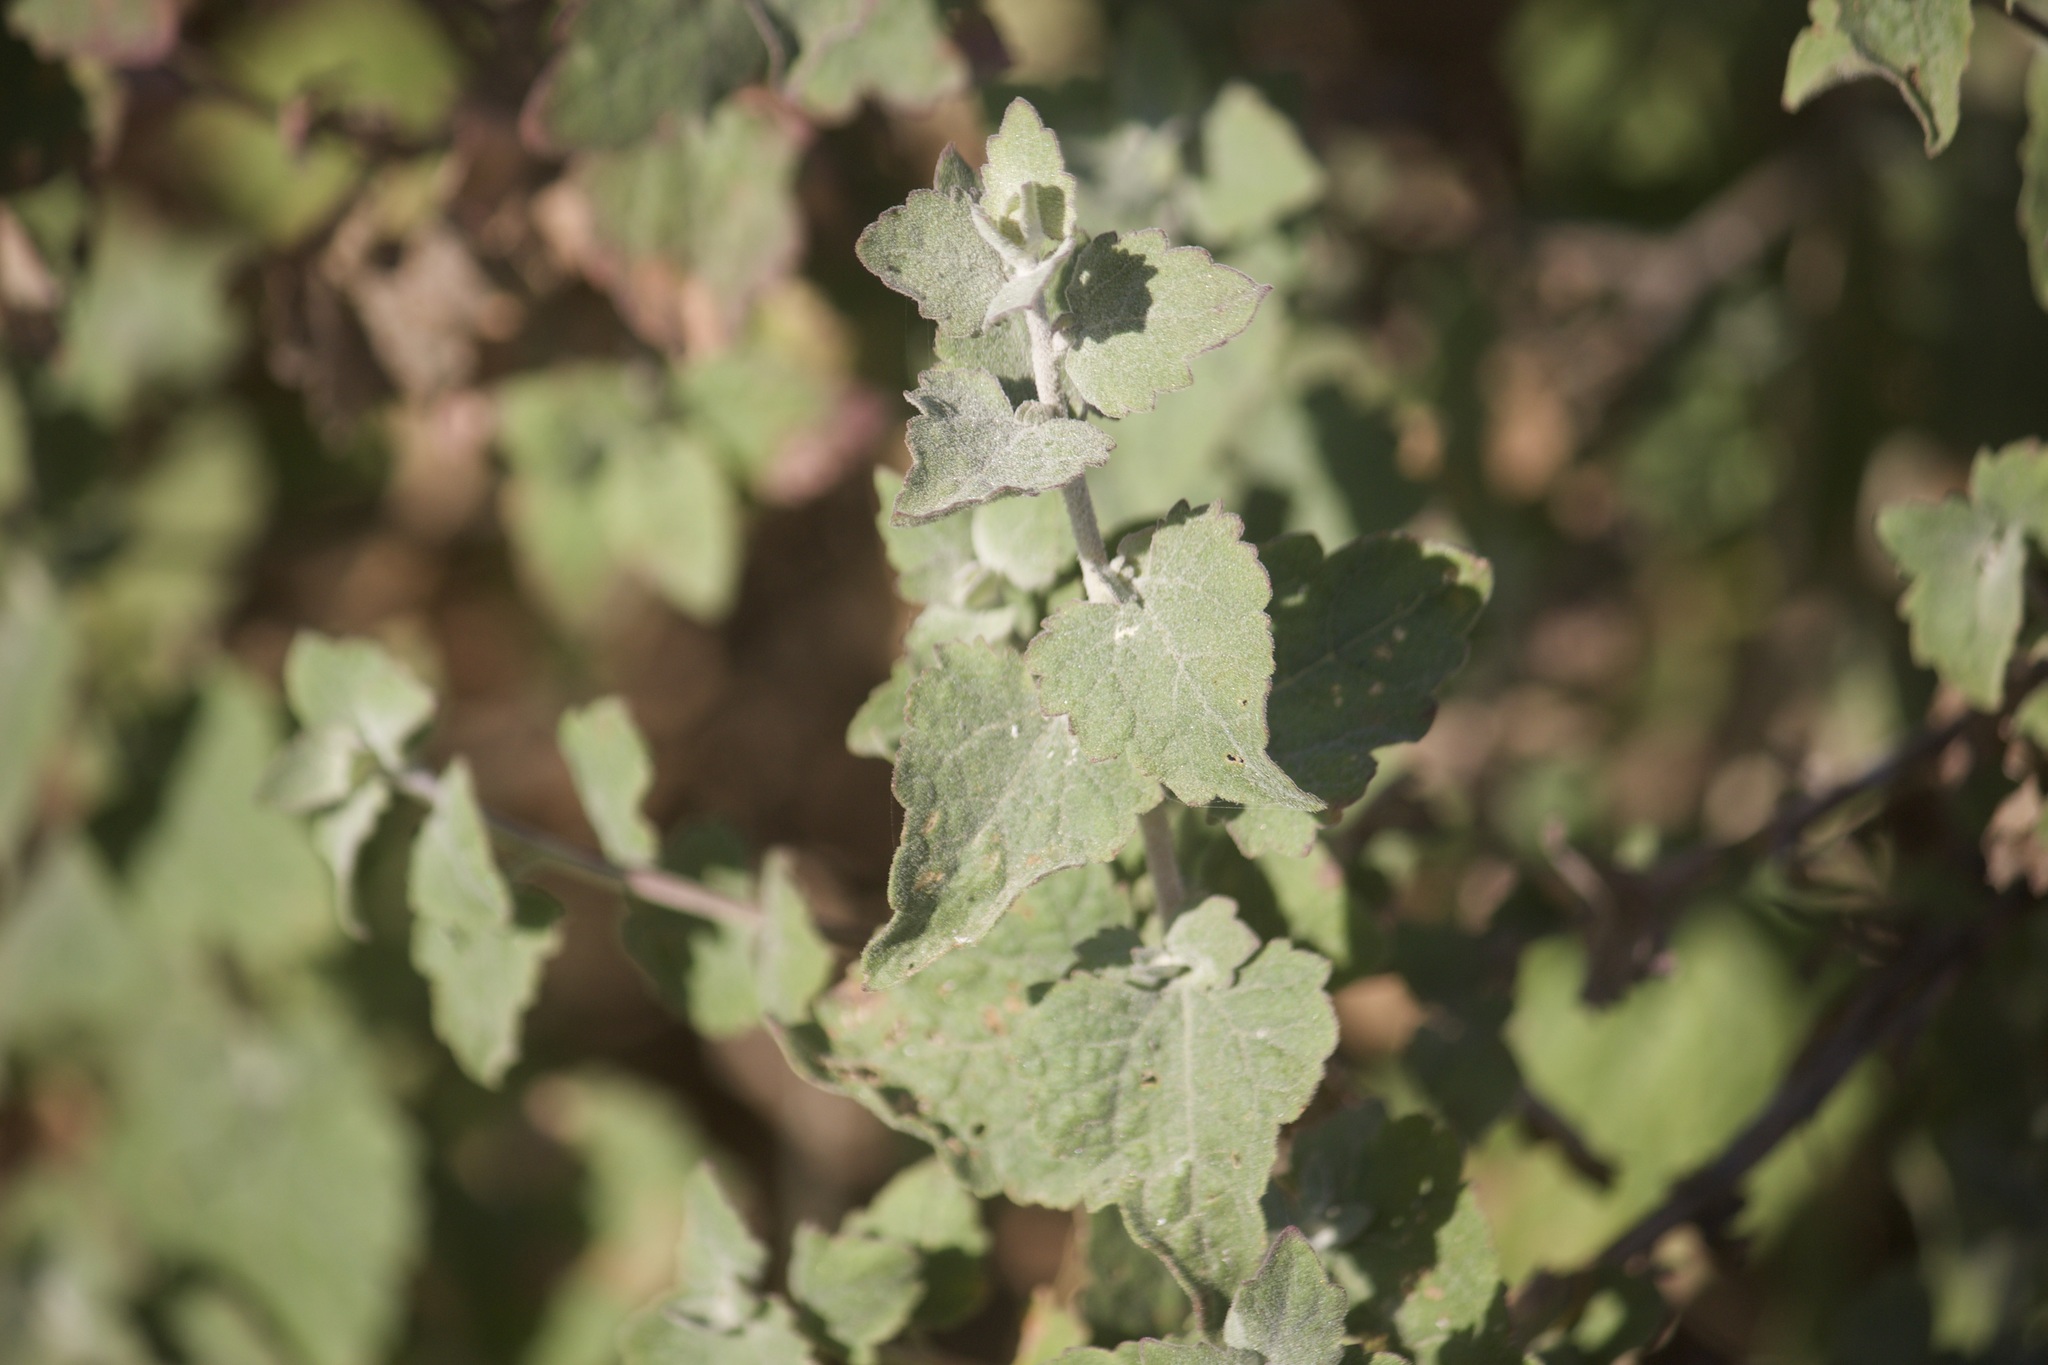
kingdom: Plantae
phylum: Tracheophyta
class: Magnoliopsida
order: Asterales
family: Asteraceae
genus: Brickellia
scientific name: Brickellia californica
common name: California brickellbush
